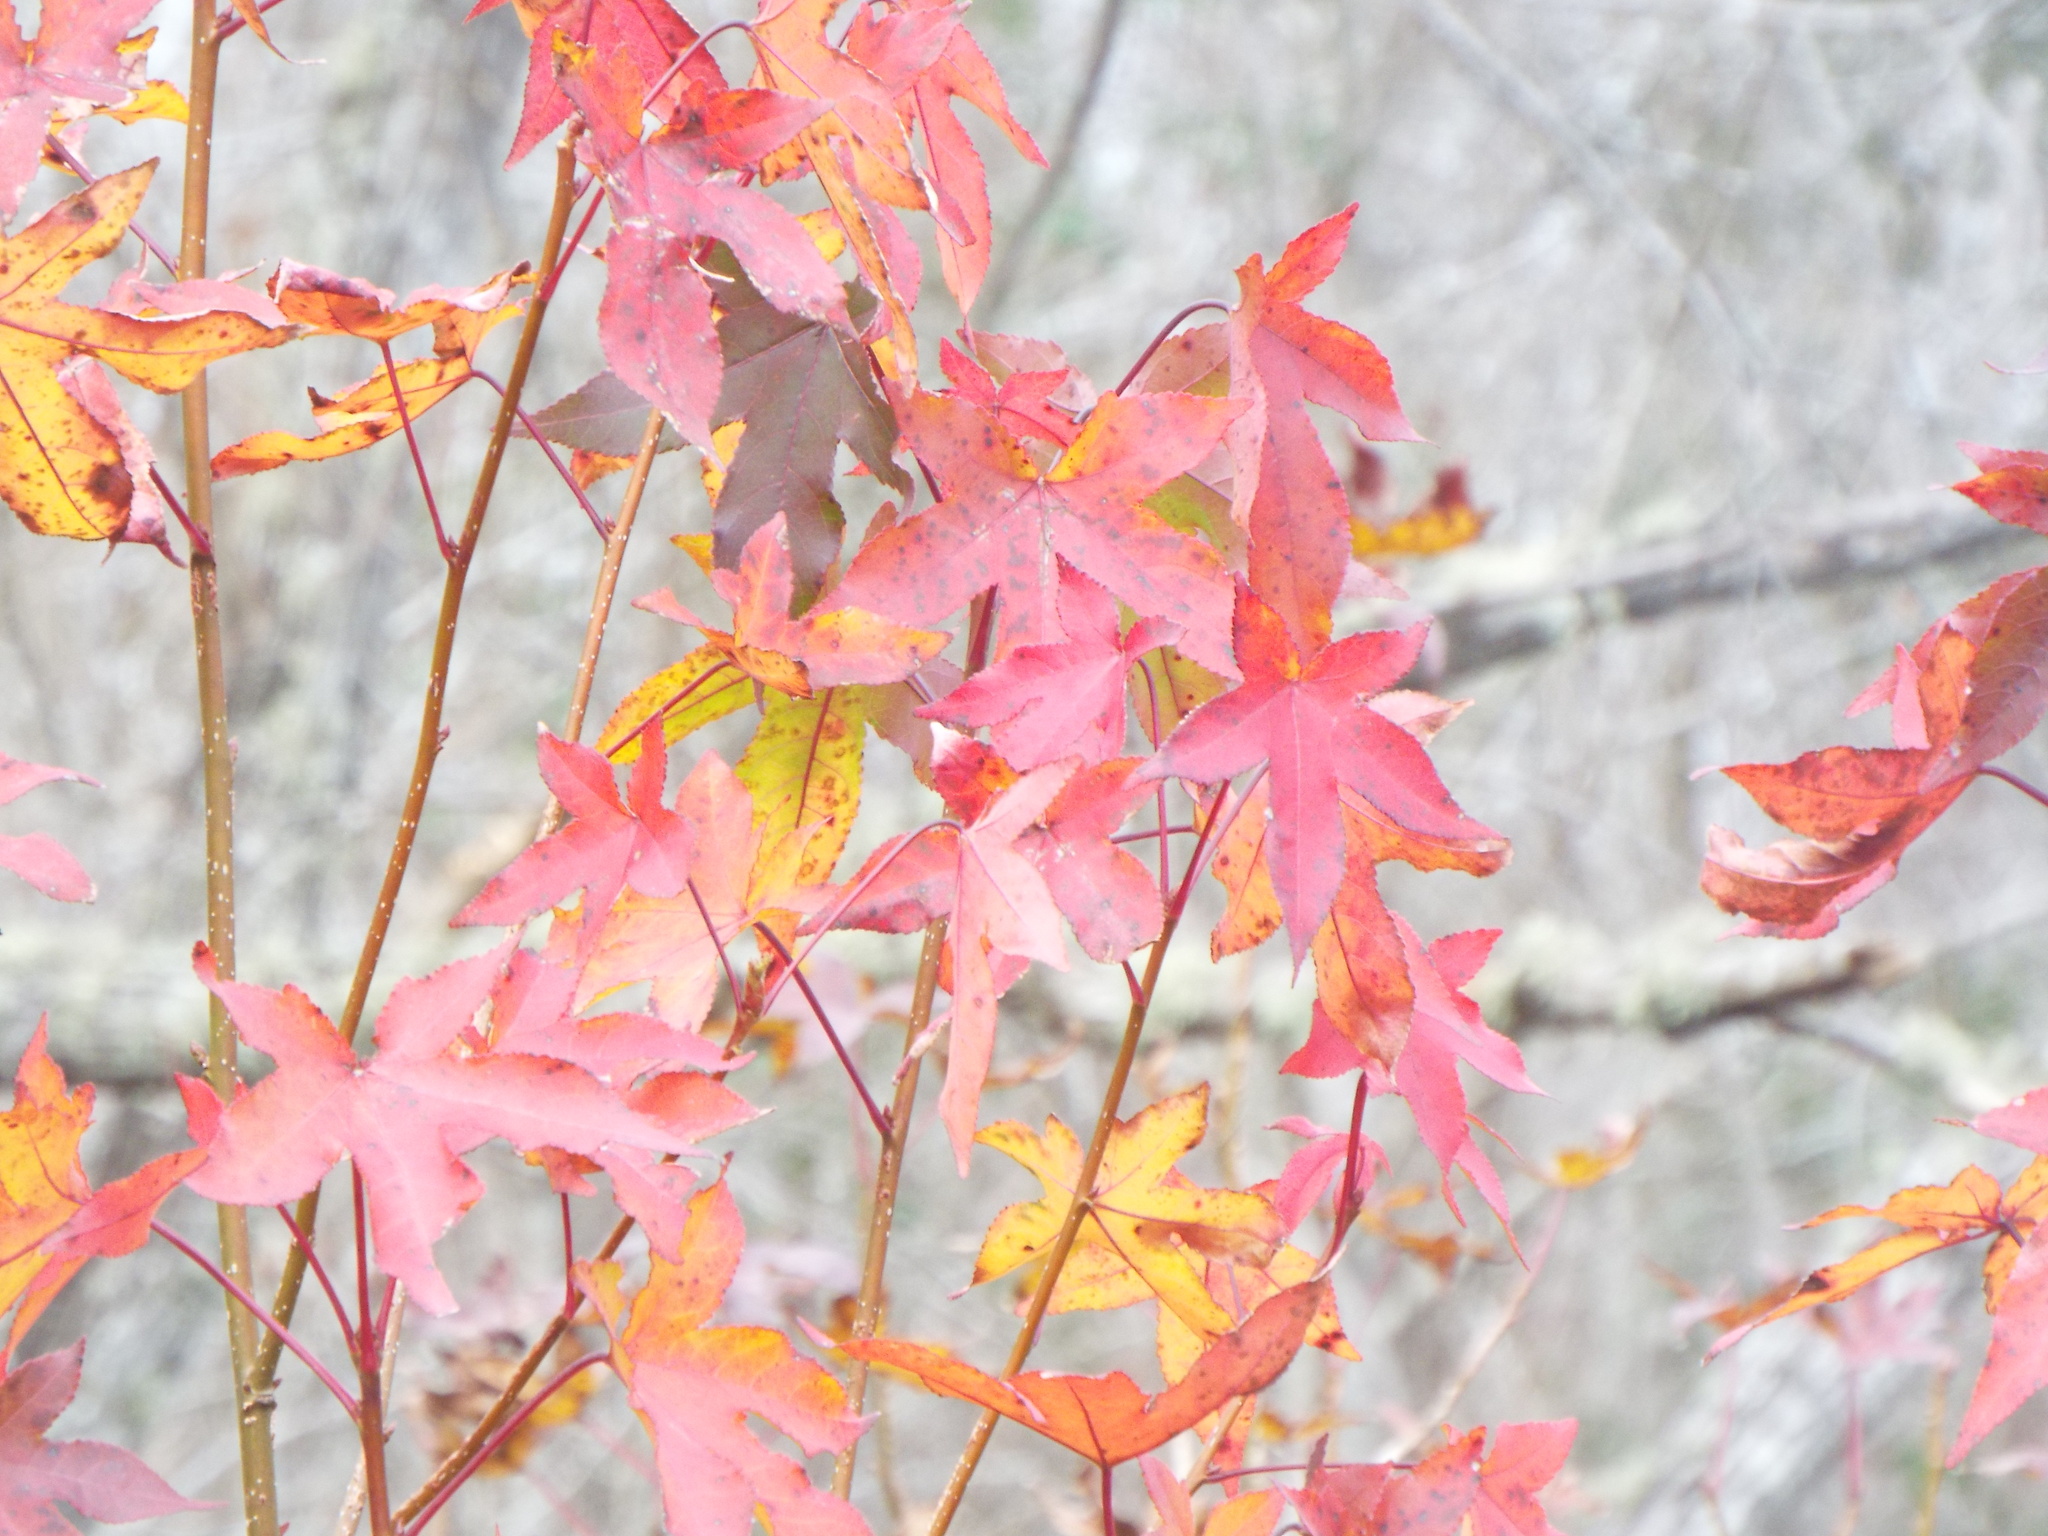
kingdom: Plantae
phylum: Tracheophyta
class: Magnoliopsida
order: Saxifragales
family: Altingiaceae
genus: Liquidambar
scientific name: Liquidambar styraciflua
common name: Sweet gum
